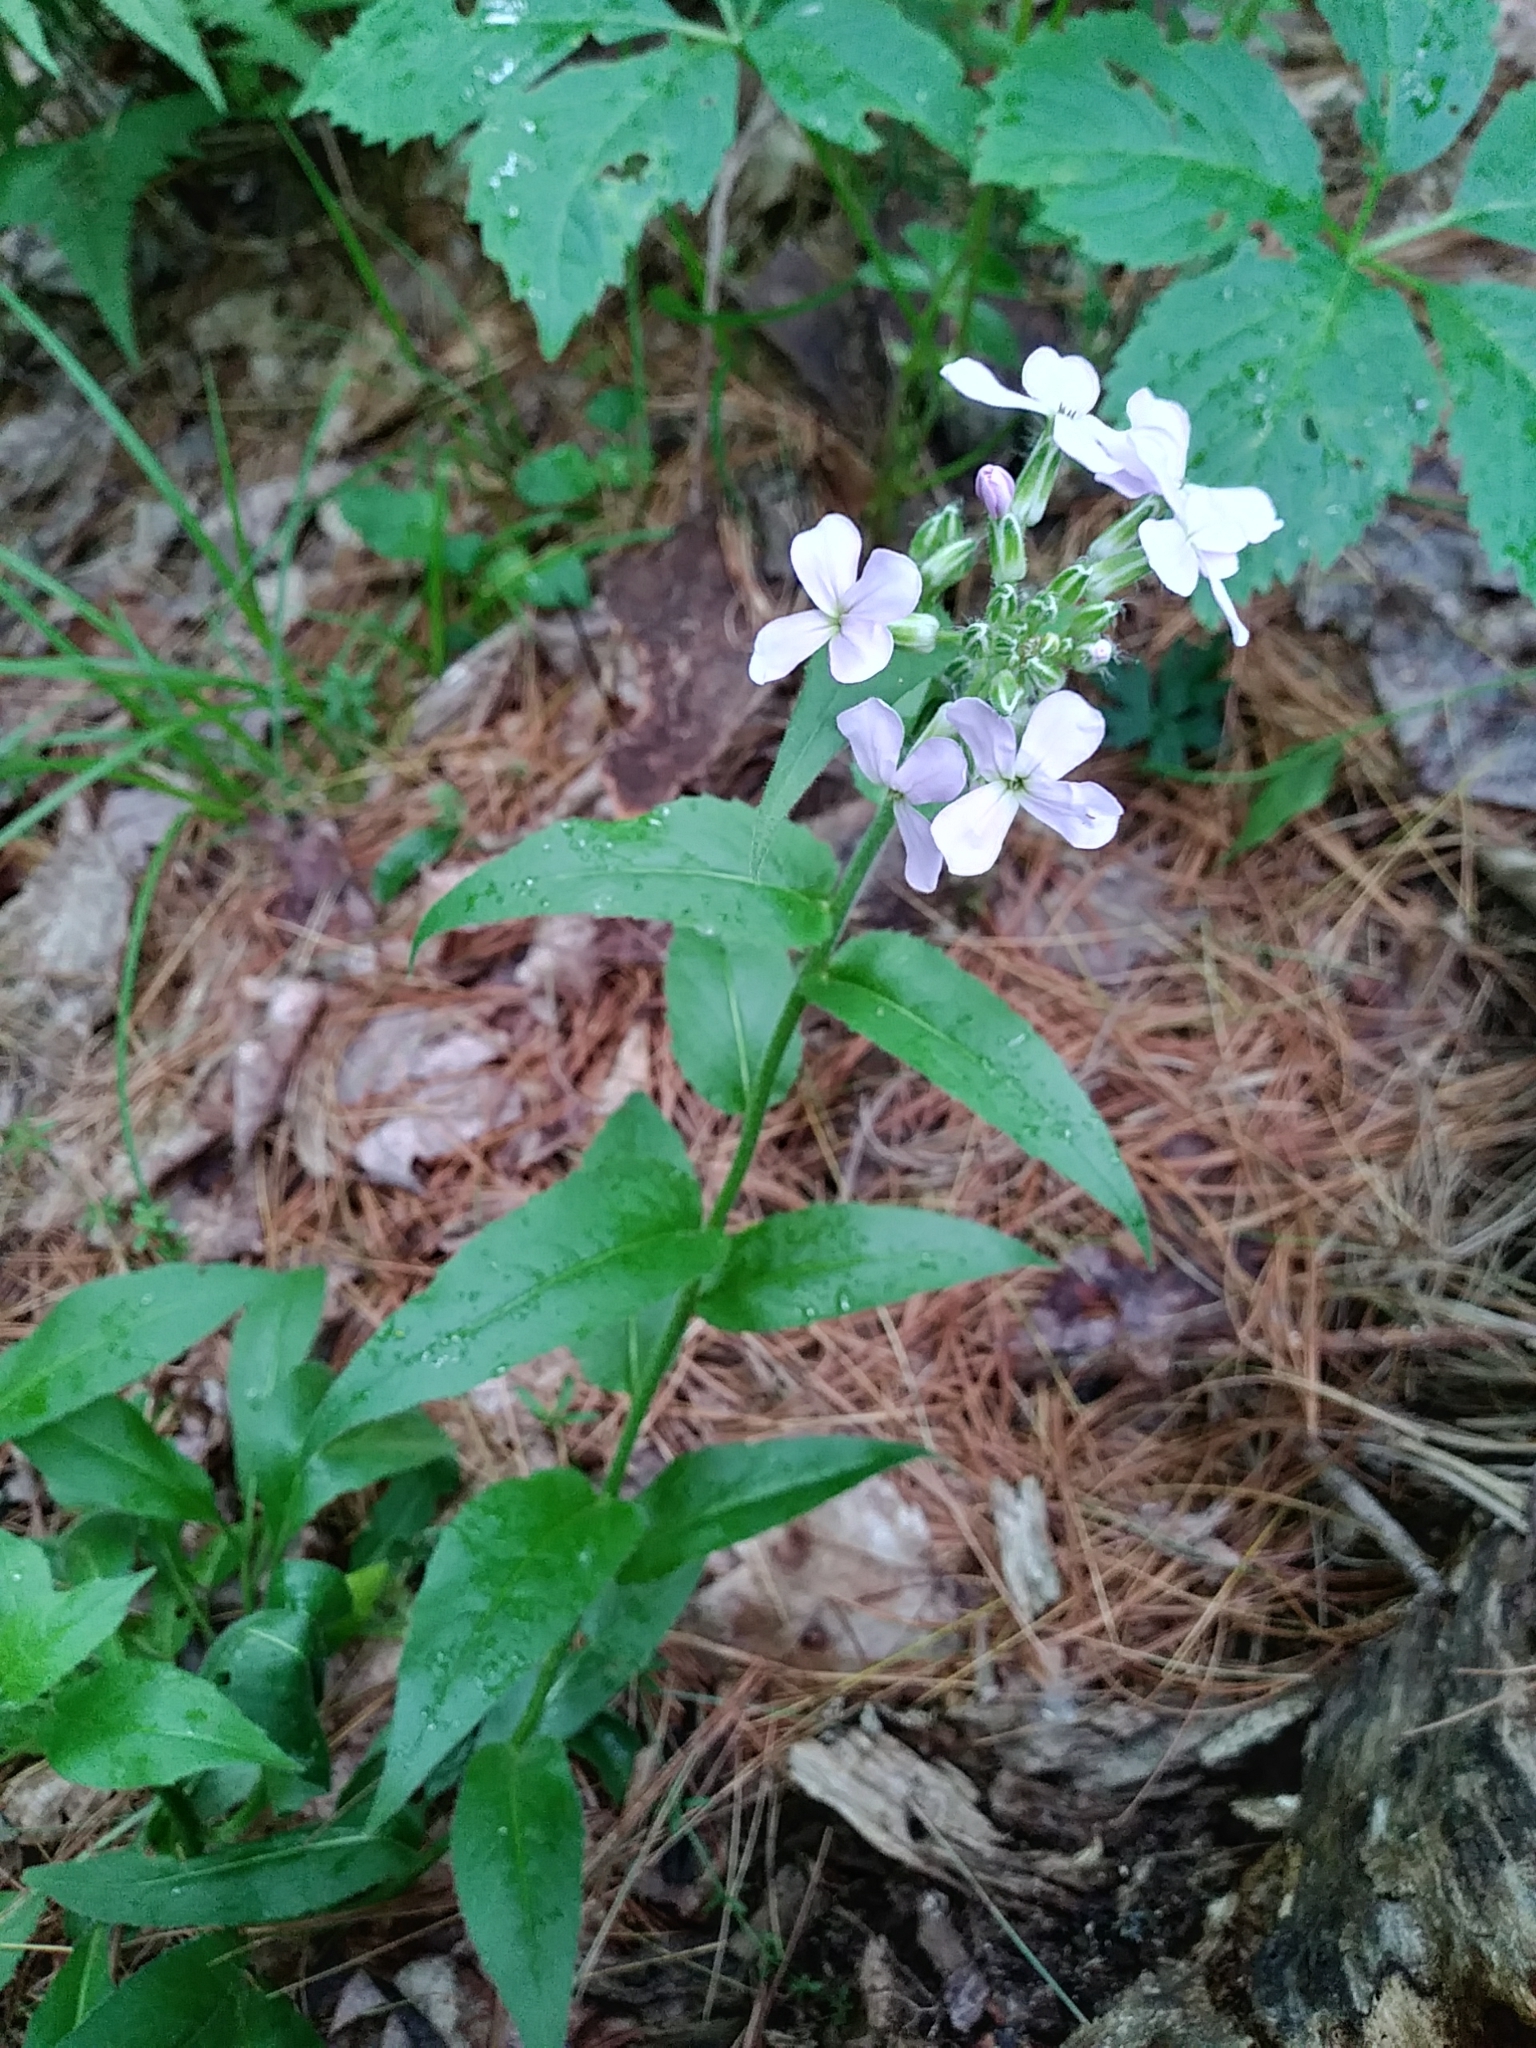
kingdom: Plantae
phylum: Tracheophyta
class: Magnoliopsida
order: Brassicales
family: Brassicaceae
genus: Hesperis
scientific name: Hesperis matronalis
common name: Dame's-violet
